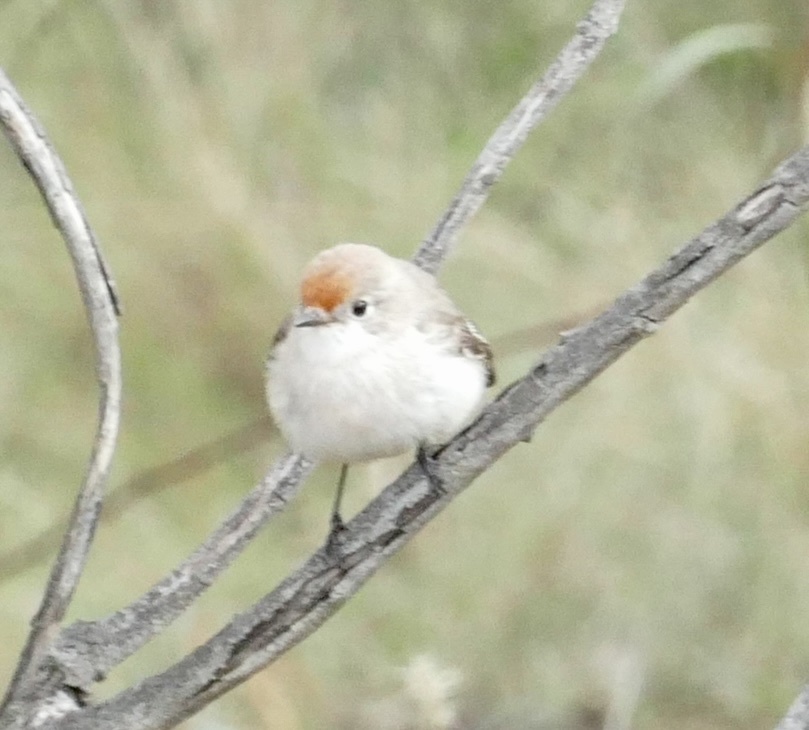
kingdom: Animalia
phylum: Chordata
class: Aves
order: Passeriformes
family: Petroicidae
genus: Petroica
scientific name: Petroica goodenovii
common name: Red-capped robin
